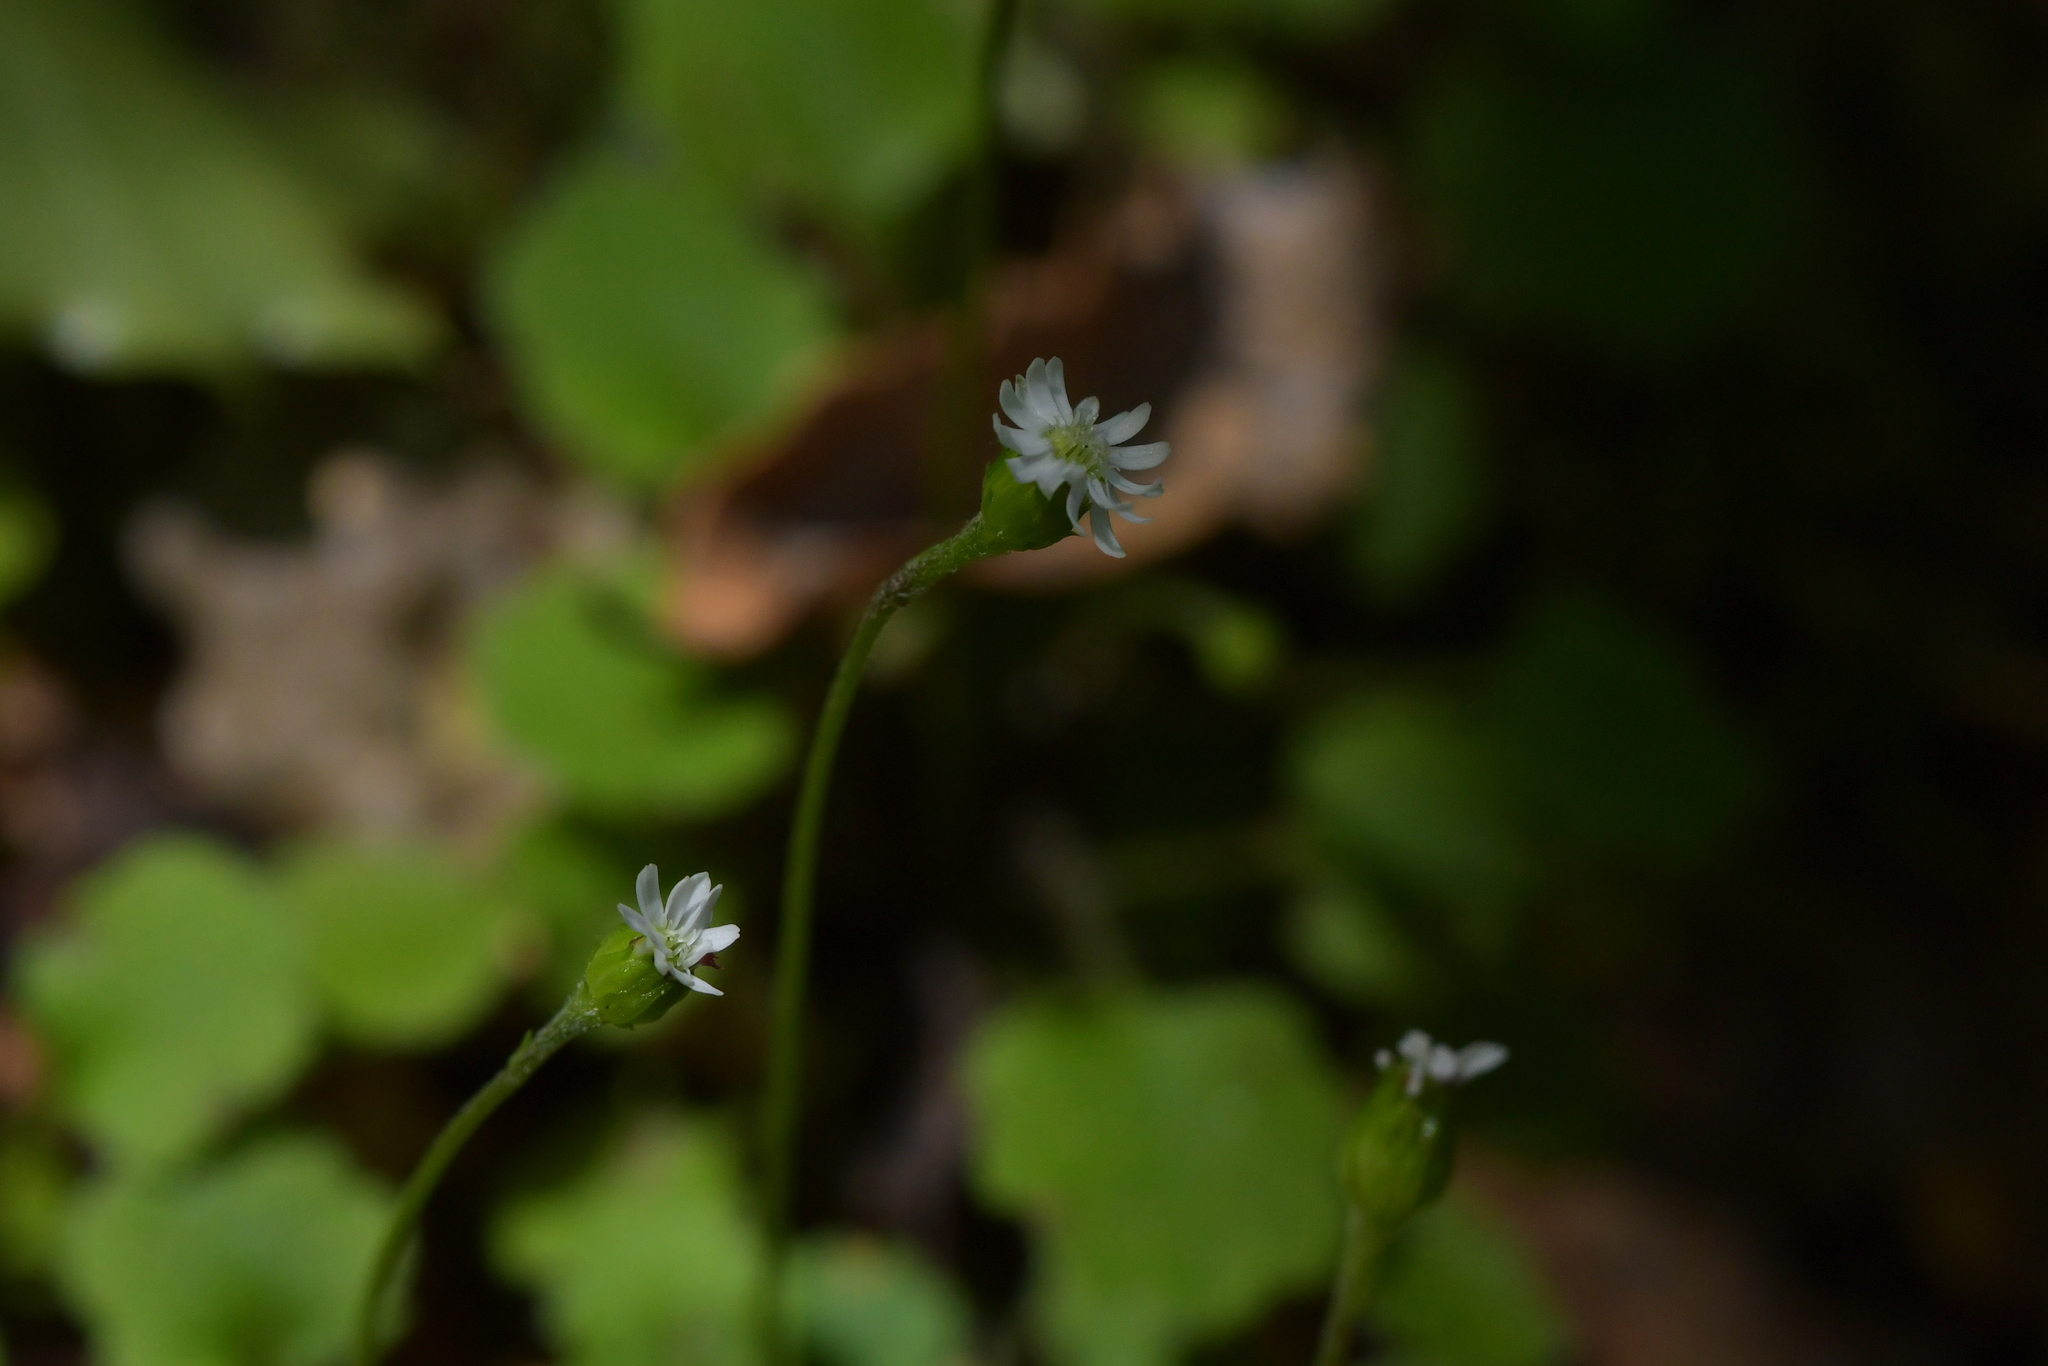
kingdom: Plantae
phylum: Tracheophyta
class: Magnoliopsida
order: Asterales
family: Asteraceae
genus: Lagenophora
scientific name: Lagenophora strangulata
